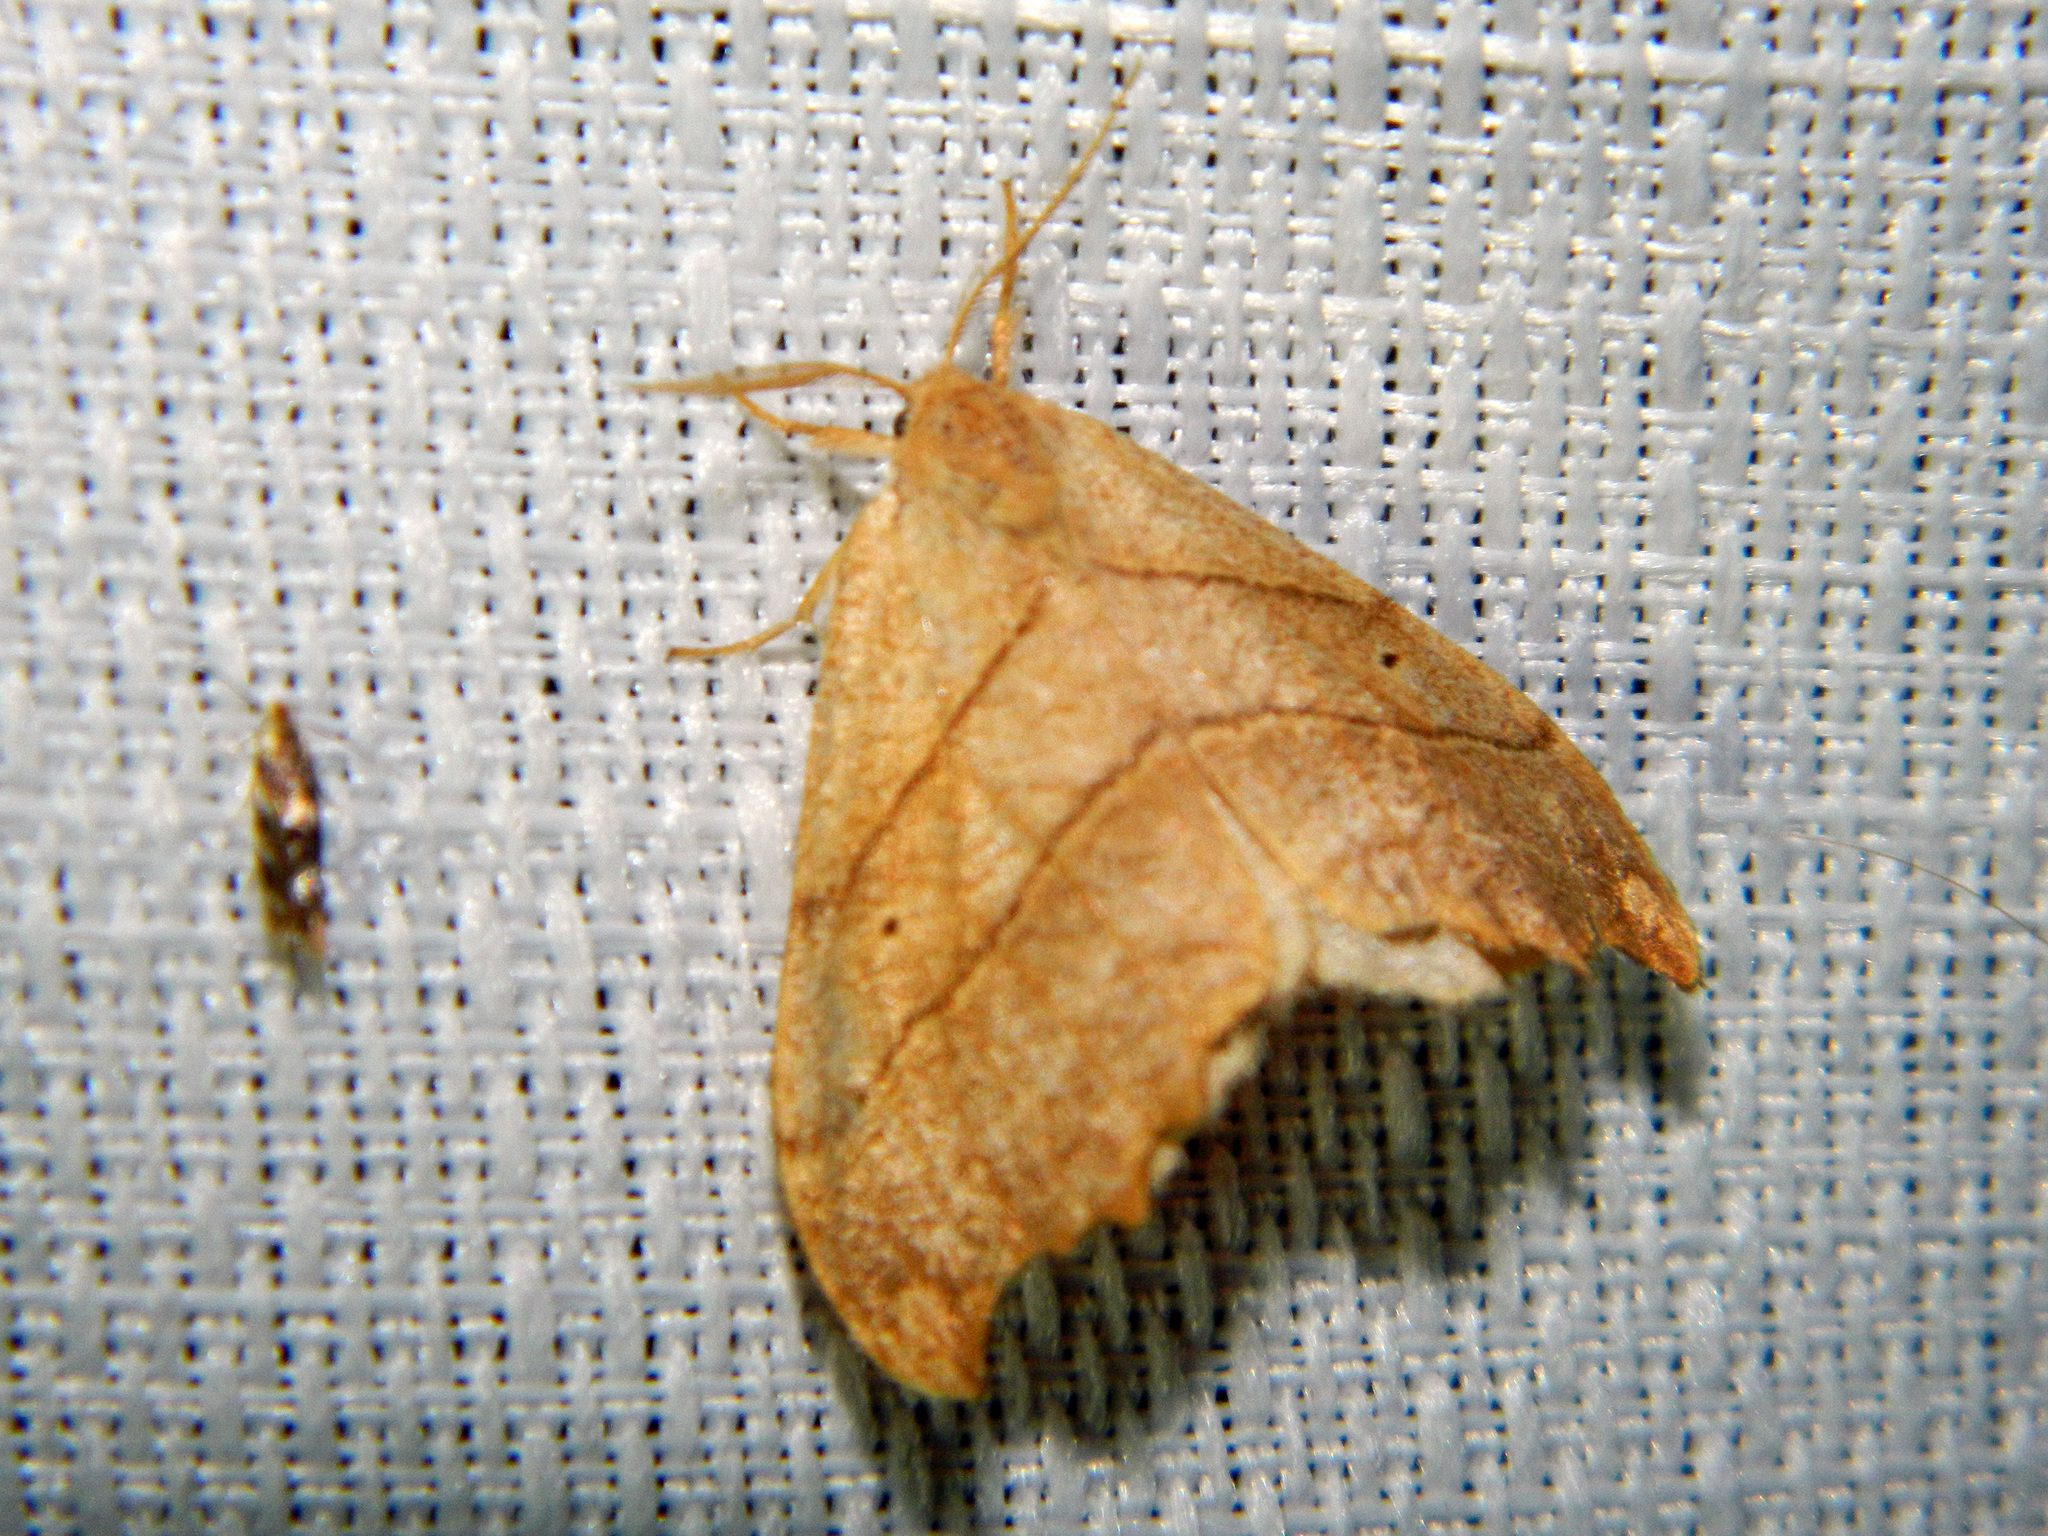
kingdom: Animalia
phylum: Arthropoda
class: Insecta
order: Lepidoptera
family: Drepanidae
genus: Falcaria
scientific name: Falcaria bilineata
